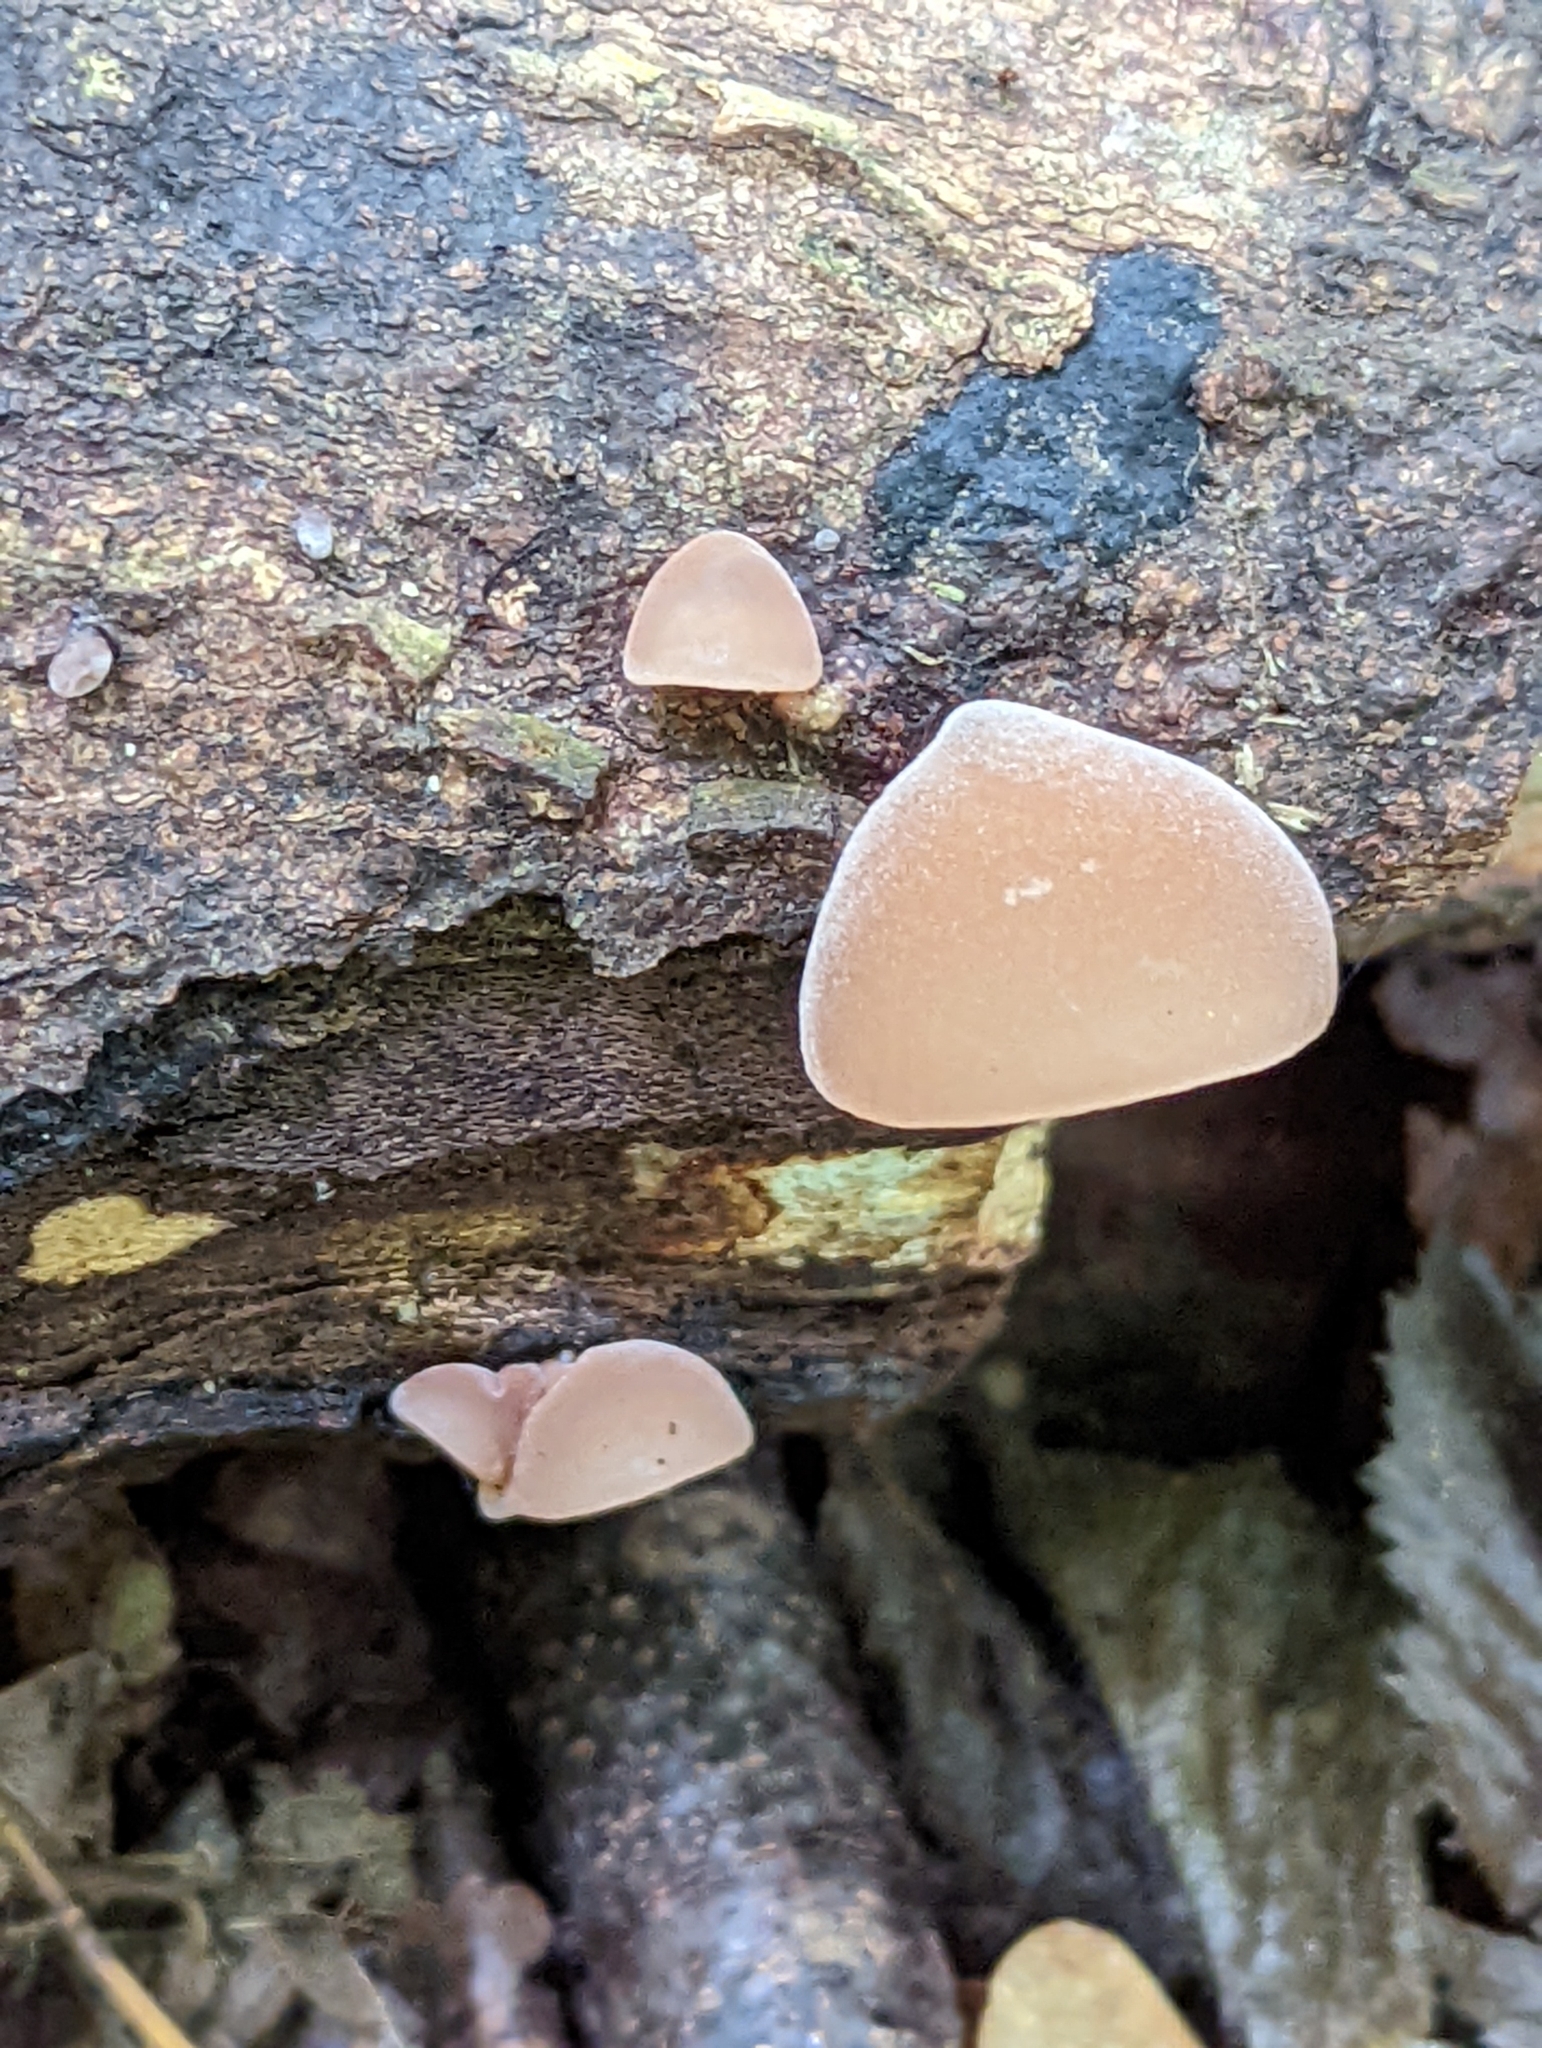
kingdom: Fungi
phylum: Basidiomycota
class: Agaricomycetes
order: Auriculariales
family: Auriculariaceae
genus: Auricularia
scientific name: Auricularia auricula-judae
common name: Jelly ear
